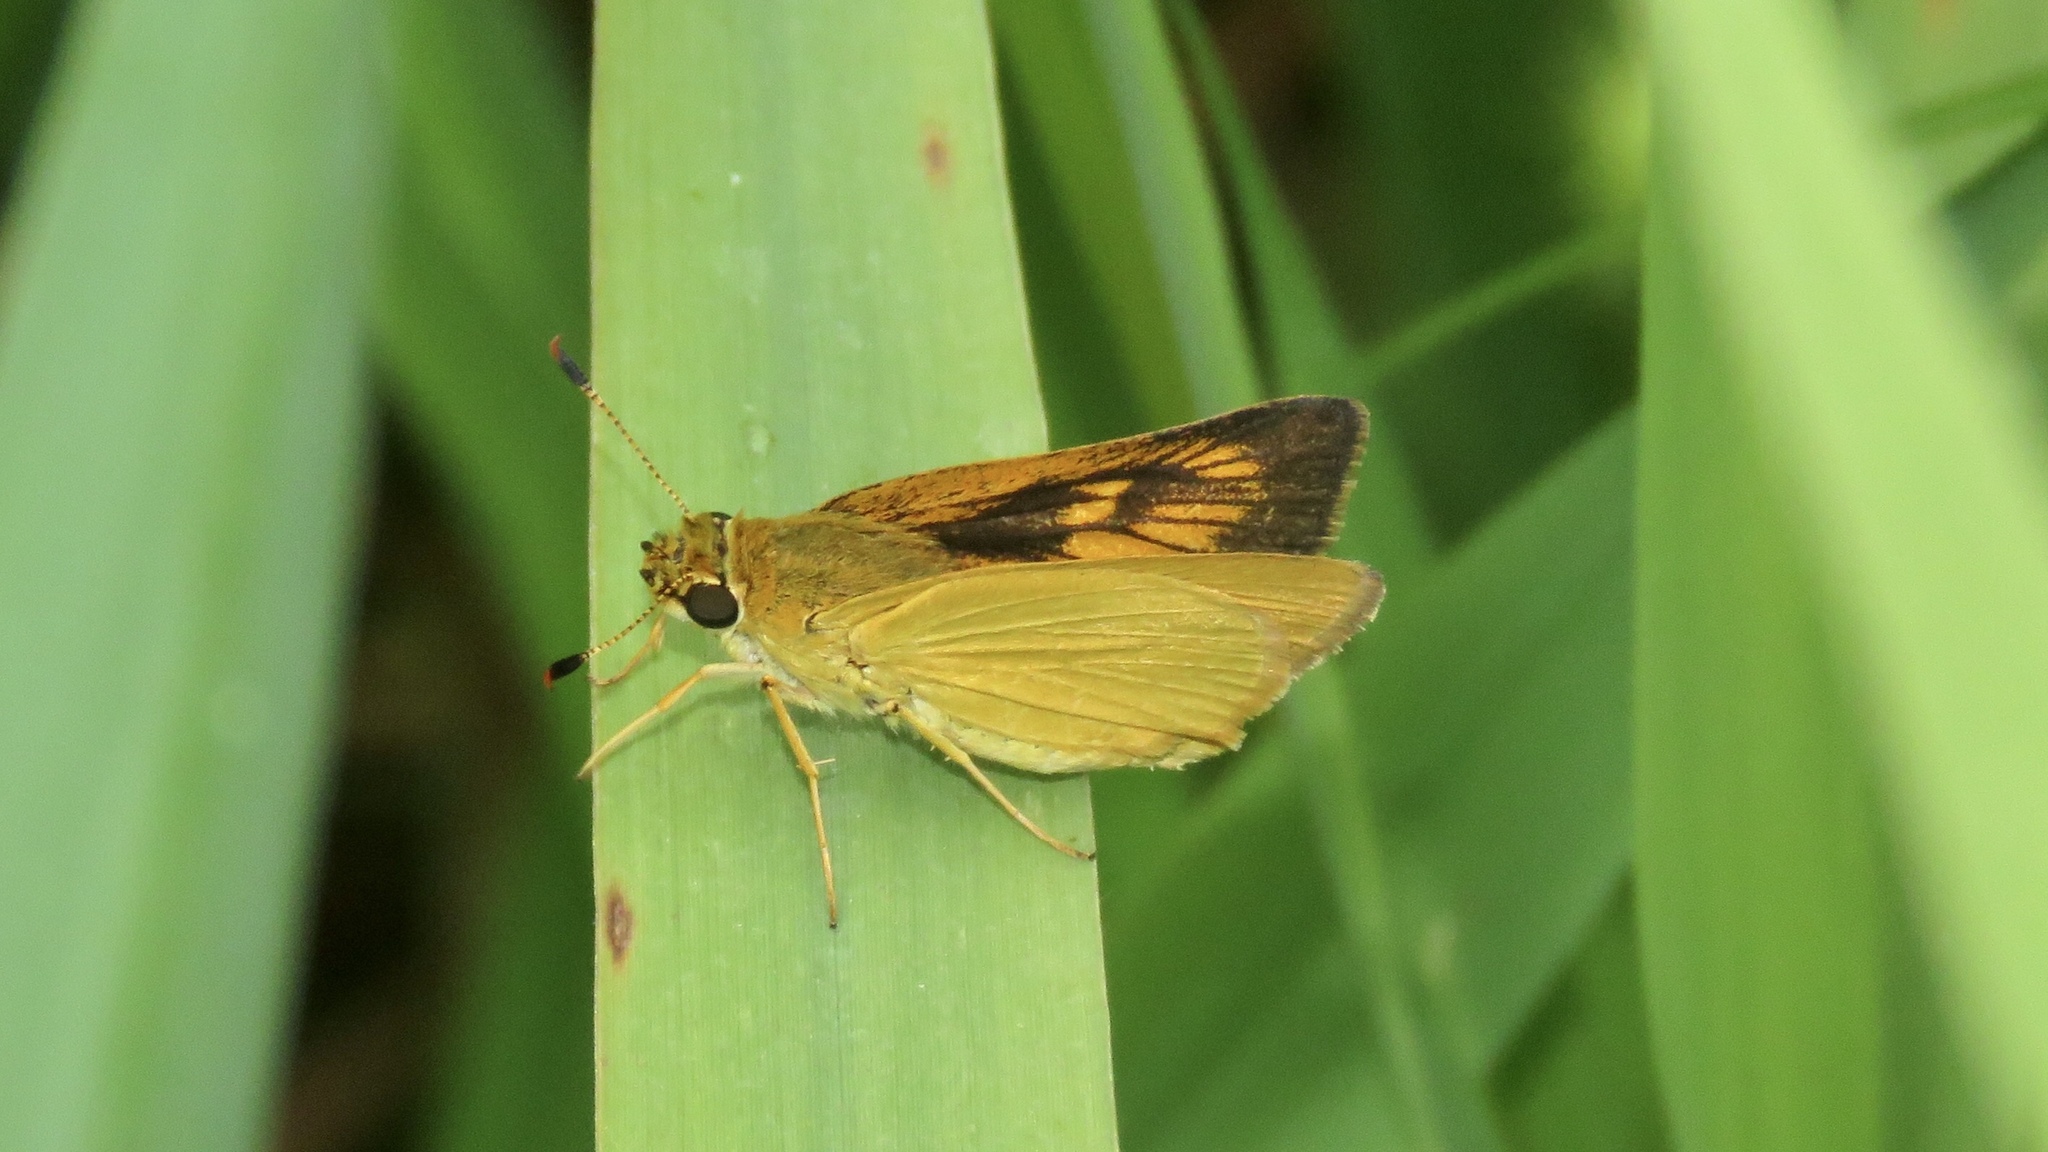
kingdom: Animalia
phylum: Arthropoda
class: Insecta
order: Lepidoptera
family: Hesperiidae
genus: Atrytone
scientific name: Atrytone delaware
